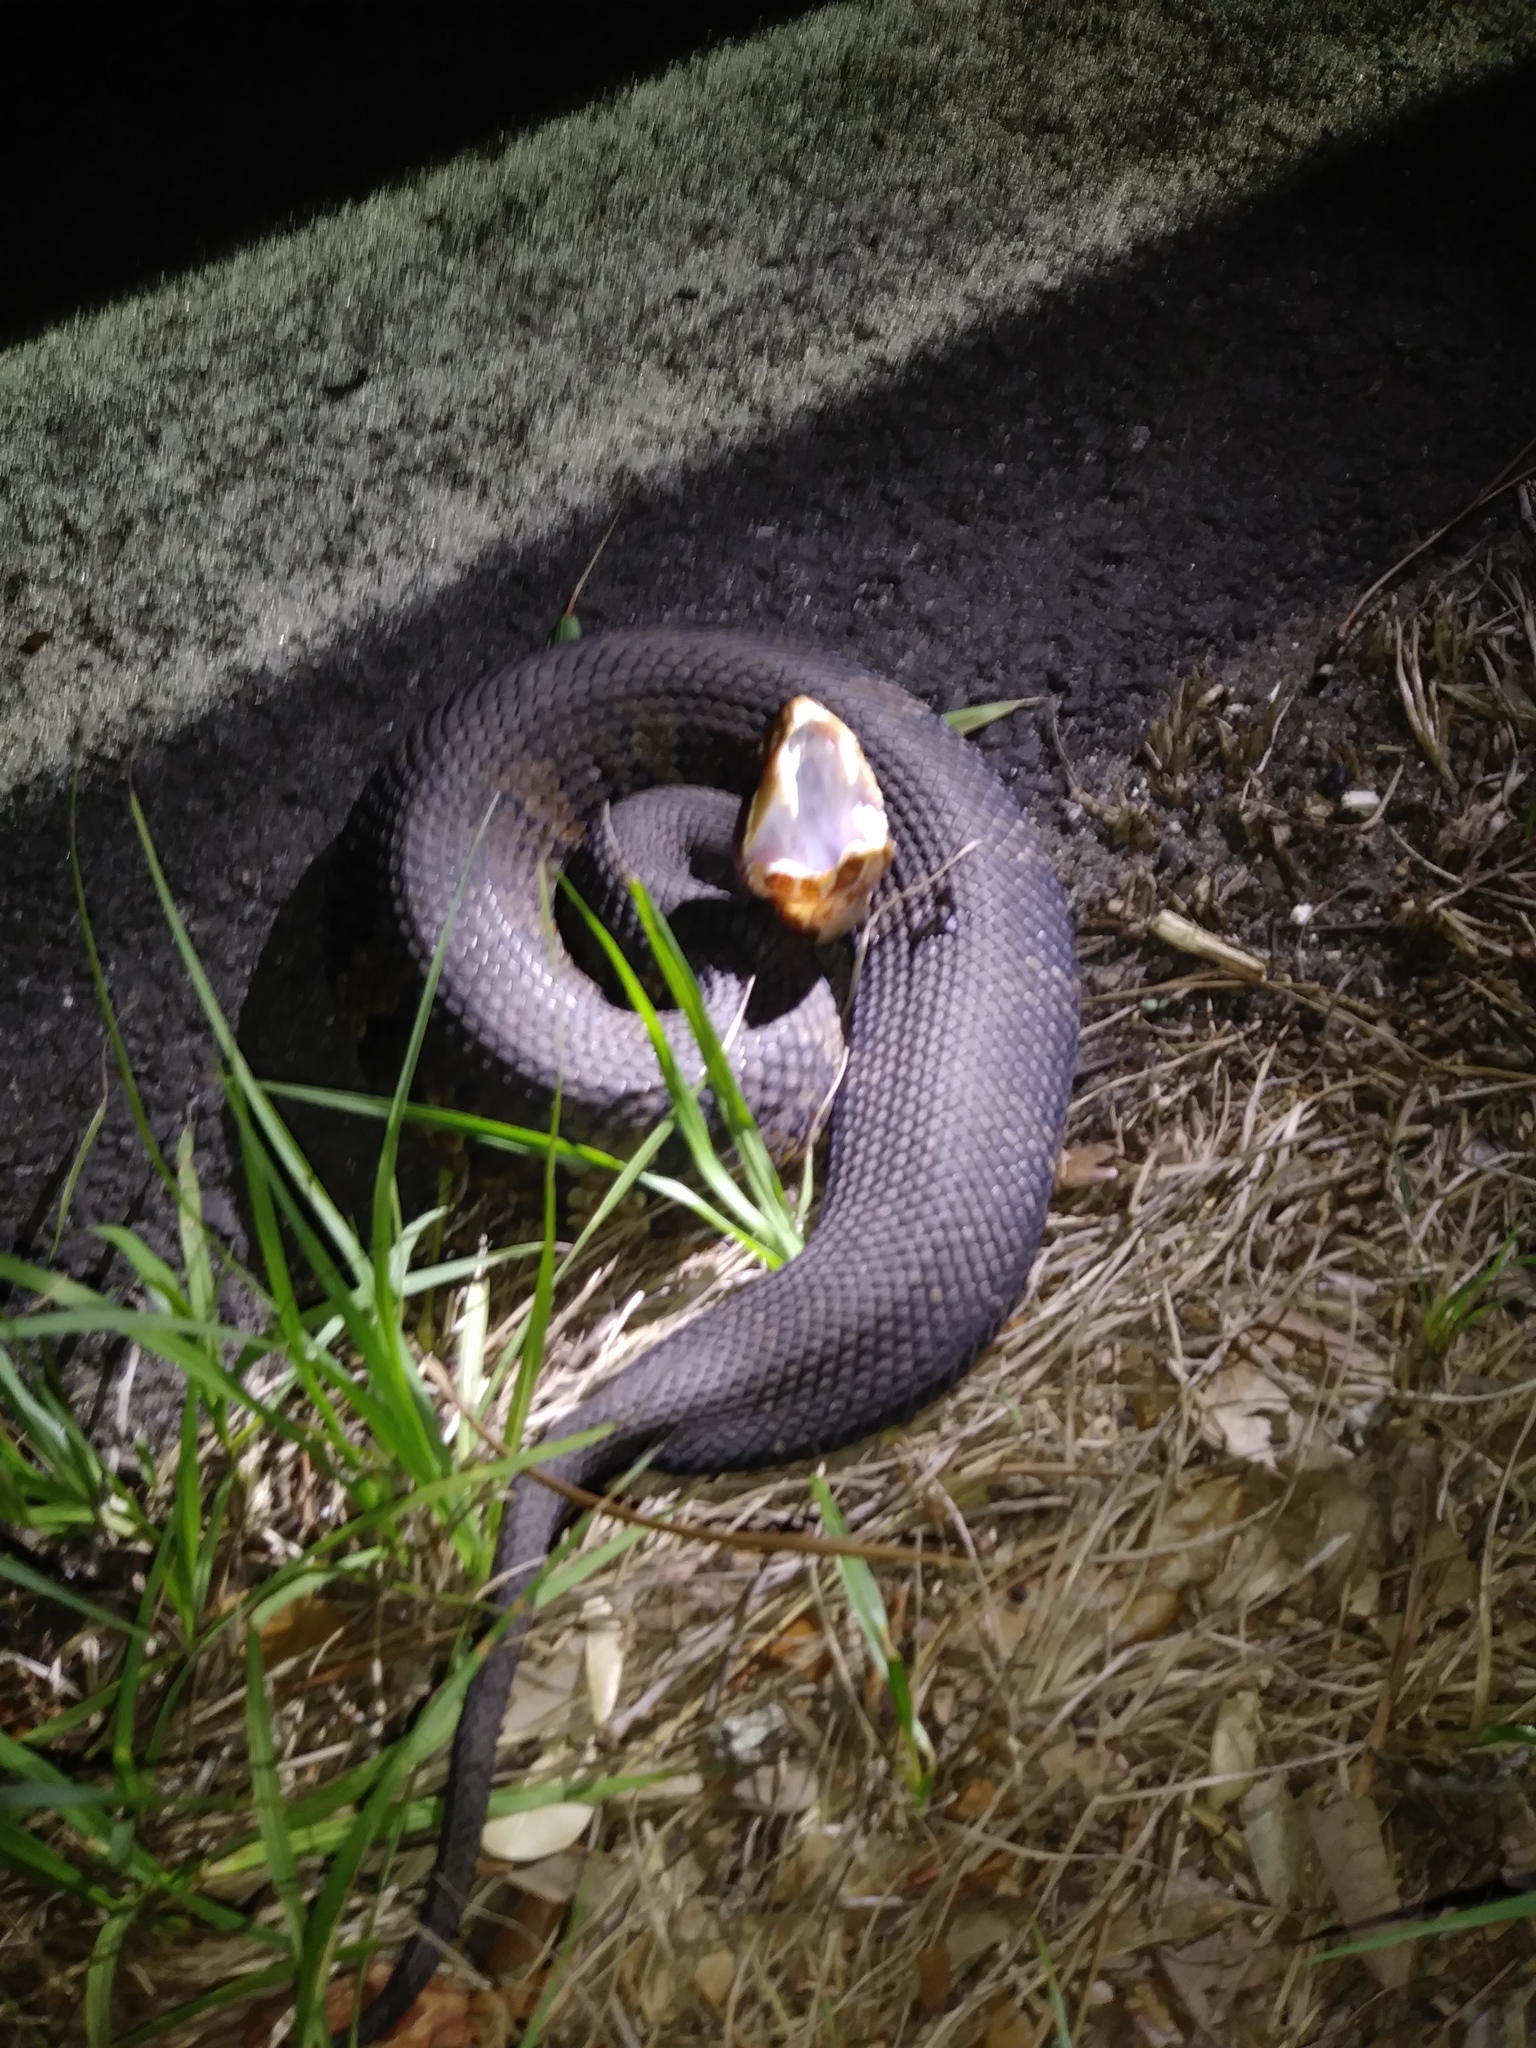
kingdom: Animalia
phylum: Chordata
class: Squamata
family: Viperidae
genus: Agkistrodon
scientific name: Agkistrodon conanti
